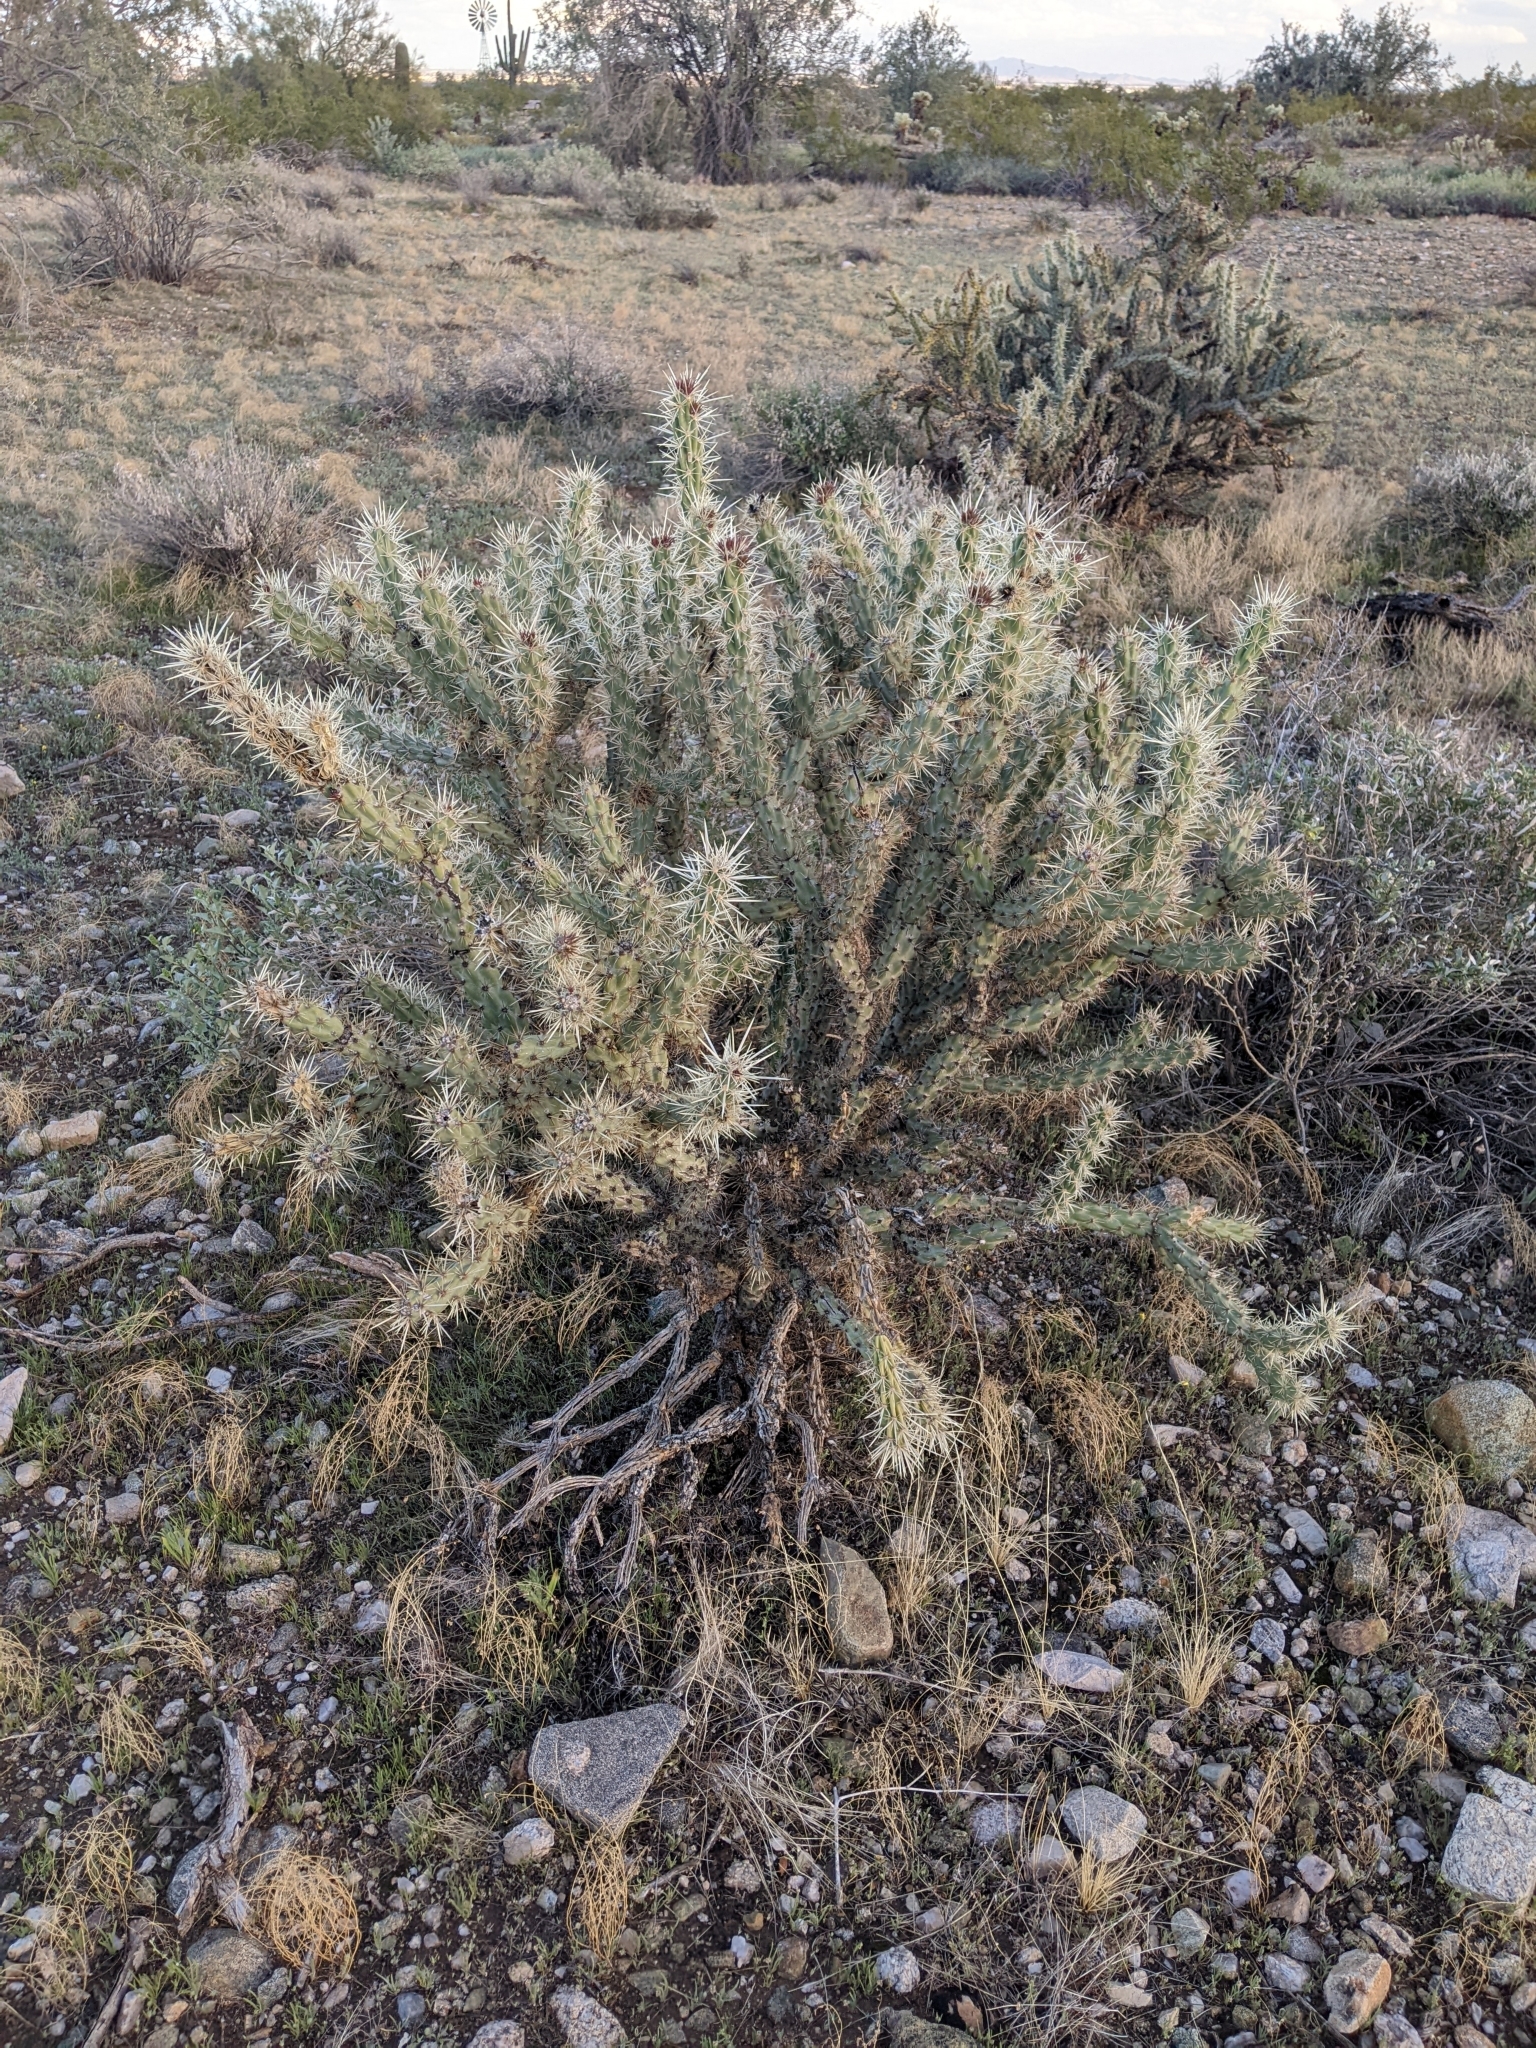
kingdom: Plantae
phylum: Tracheophyta
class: Magnoliopsida
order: Caryophyllales
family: Cactaceae
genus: Cylindropuntia
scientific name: Cylindropuntia acanthocarpa
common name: Buckhorn cholla
